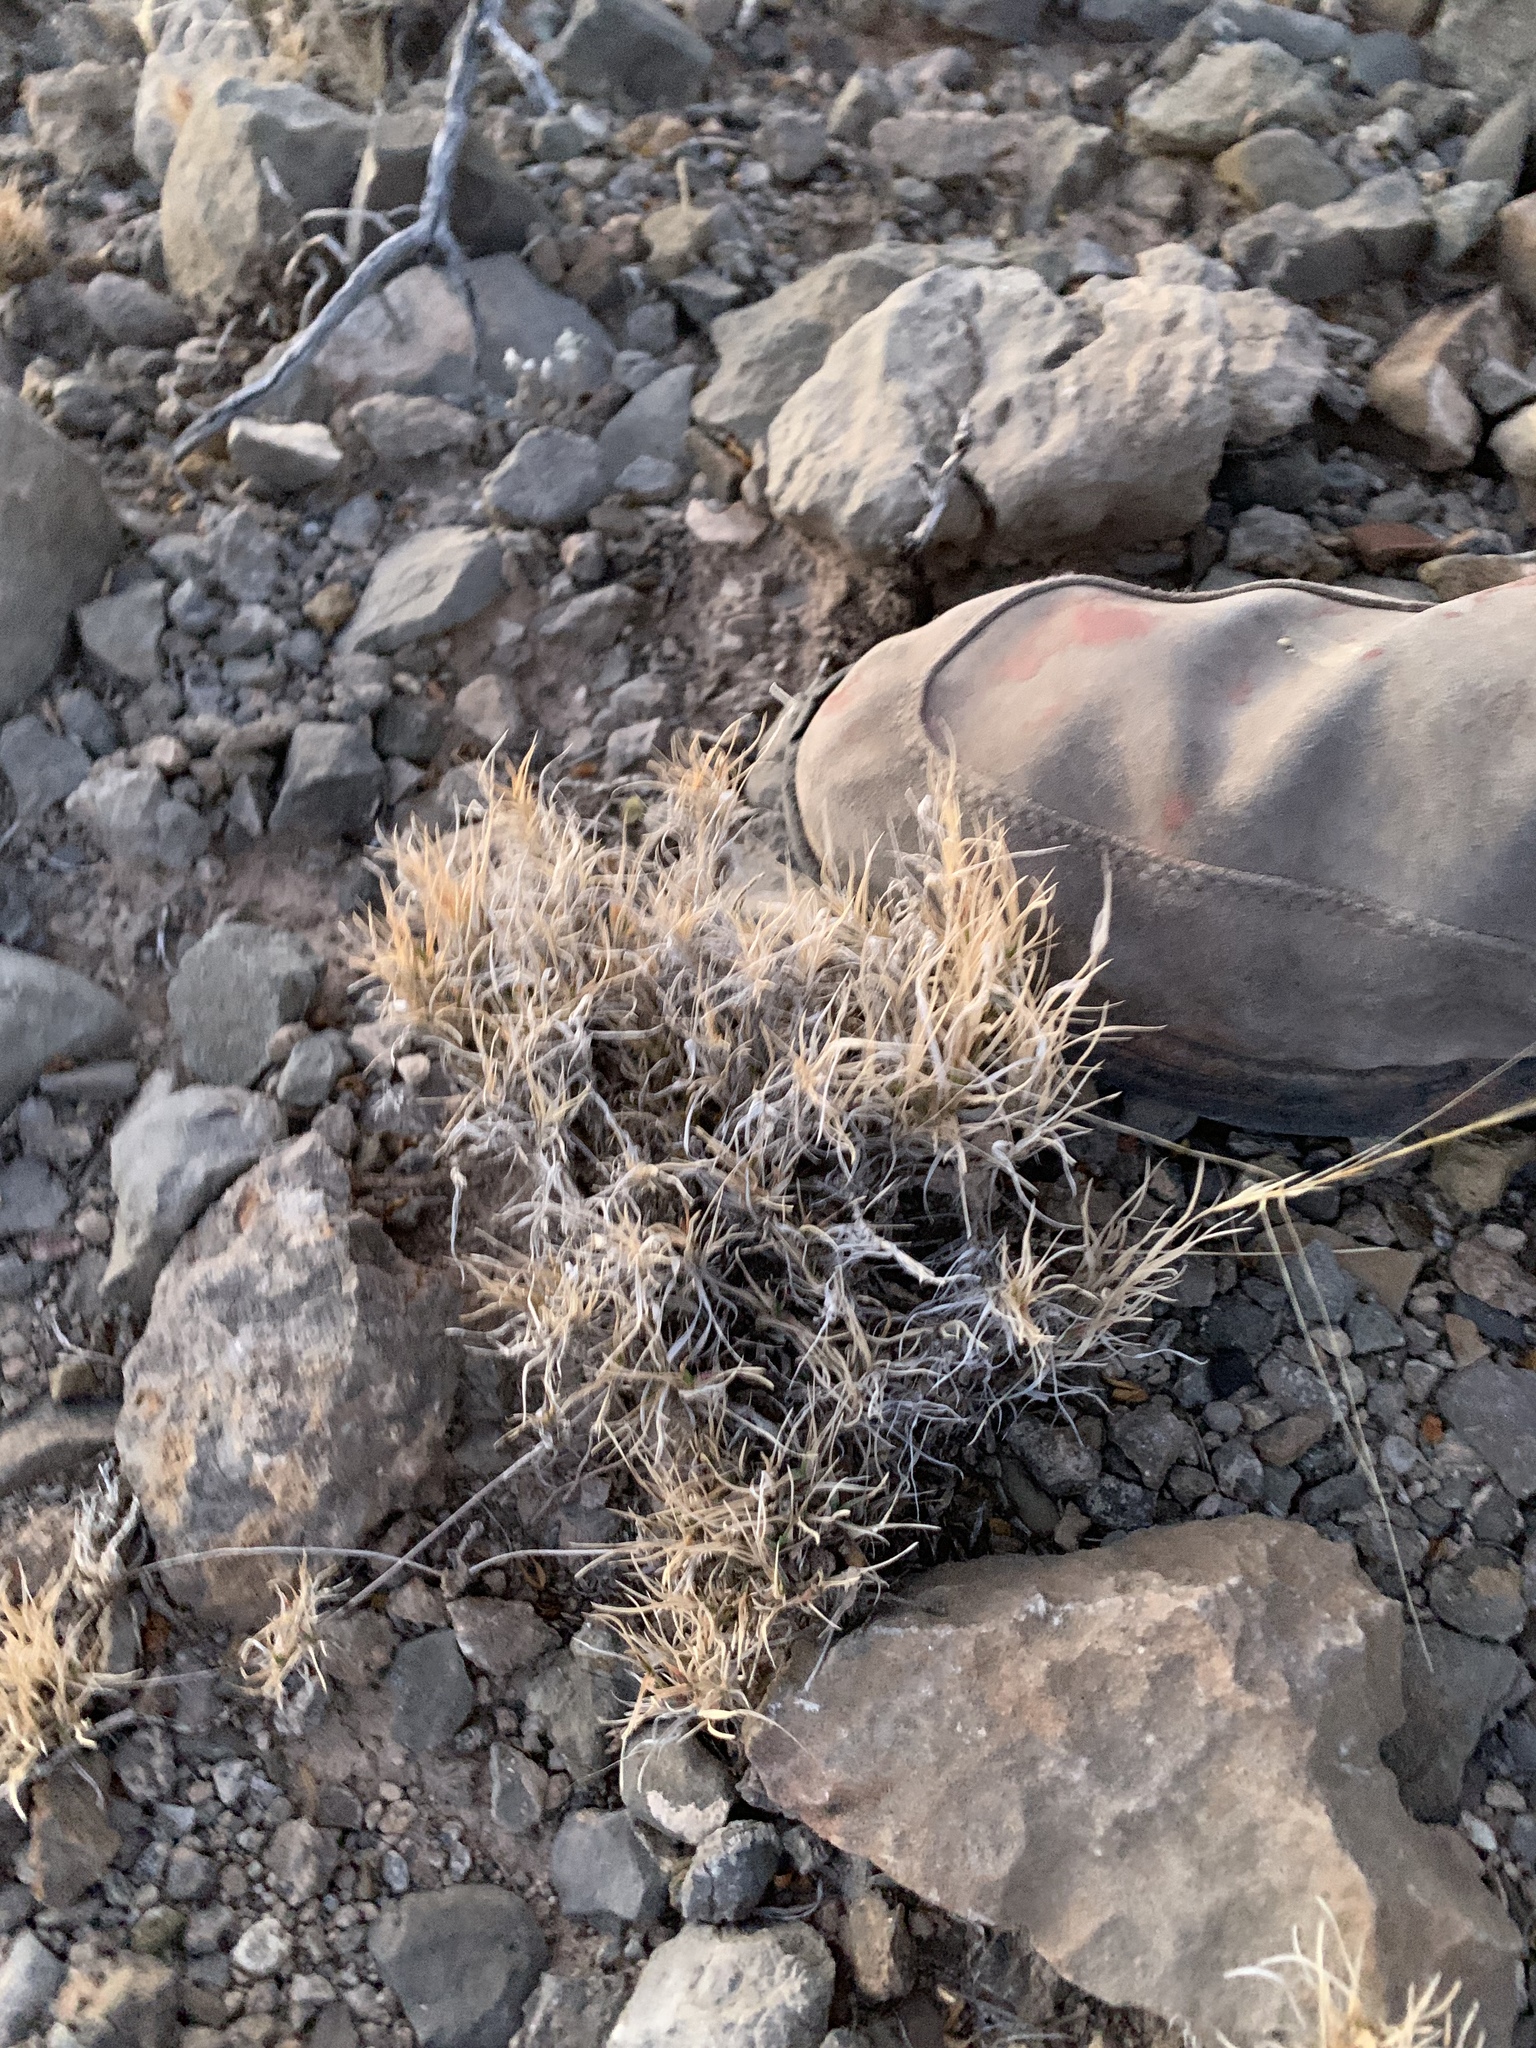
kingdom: Plantae
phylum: Tracheophyta
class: Liliopsida
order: Poales
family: Poaceae
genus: Dasyochloa
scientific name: Dasyochloa pulchella
